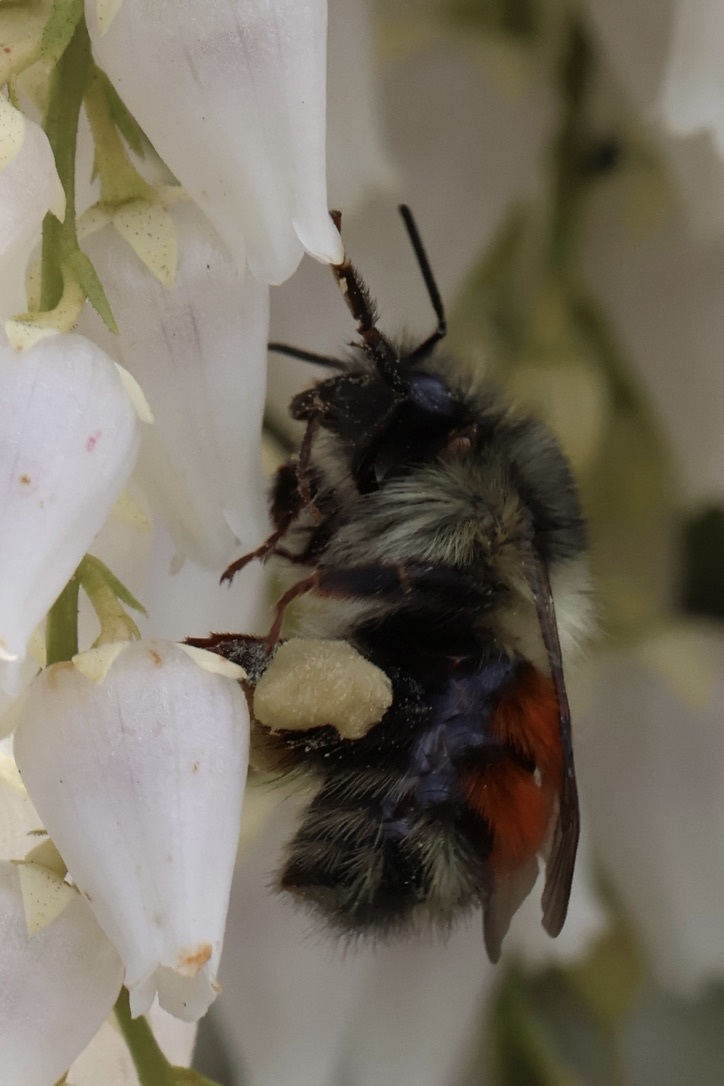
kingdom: Animalia
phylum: Arthropoda
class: Insecta
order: Hymenoptera
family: Apidae
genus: Bombus
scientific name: Bombus melanopygus
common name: Black tail bumble bee
